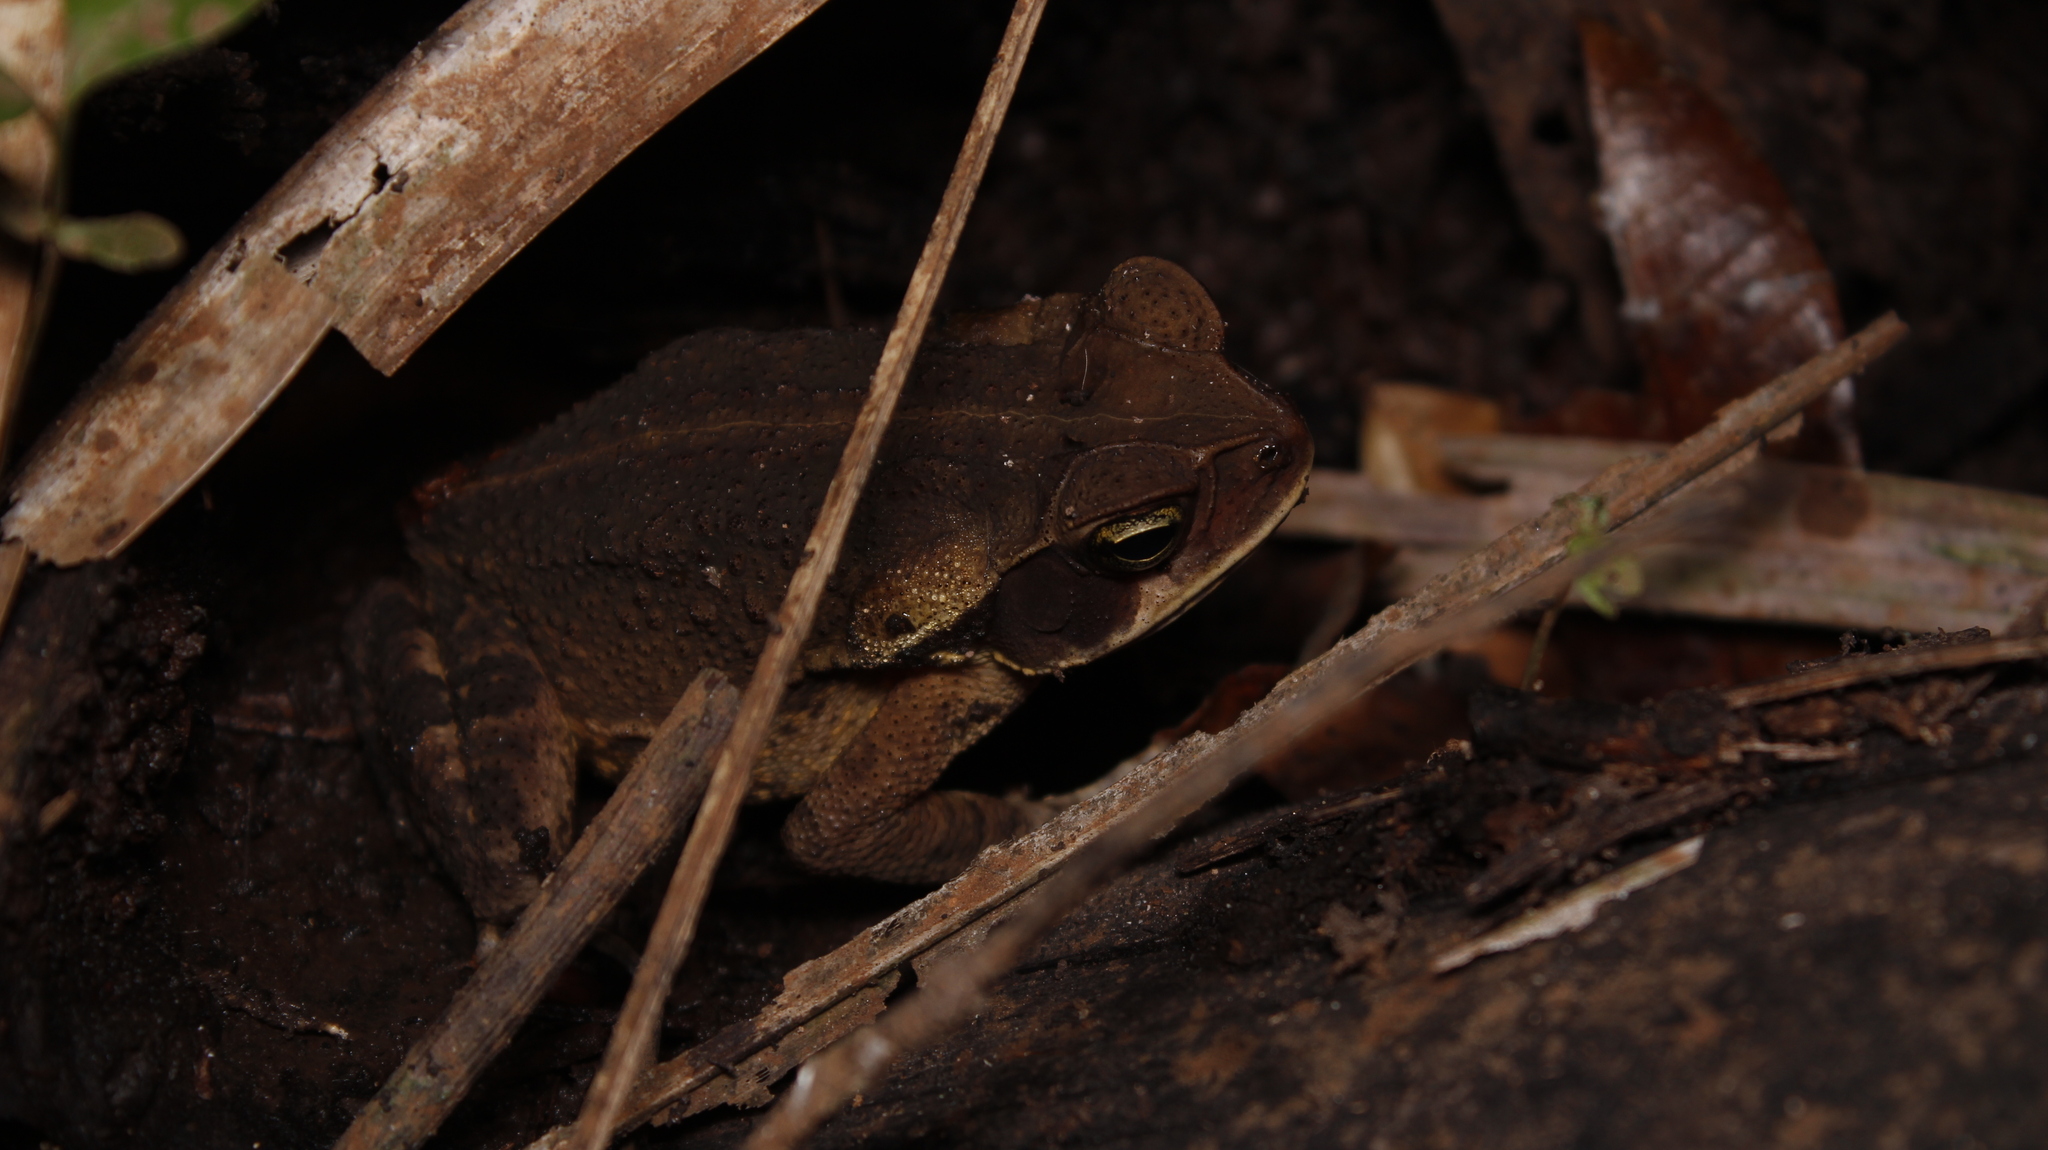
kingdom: Animalia
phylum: Chordata
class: Amphibia
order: Anura
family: Bufonidae
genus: Rhinella
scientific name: Rhinella crucifer
